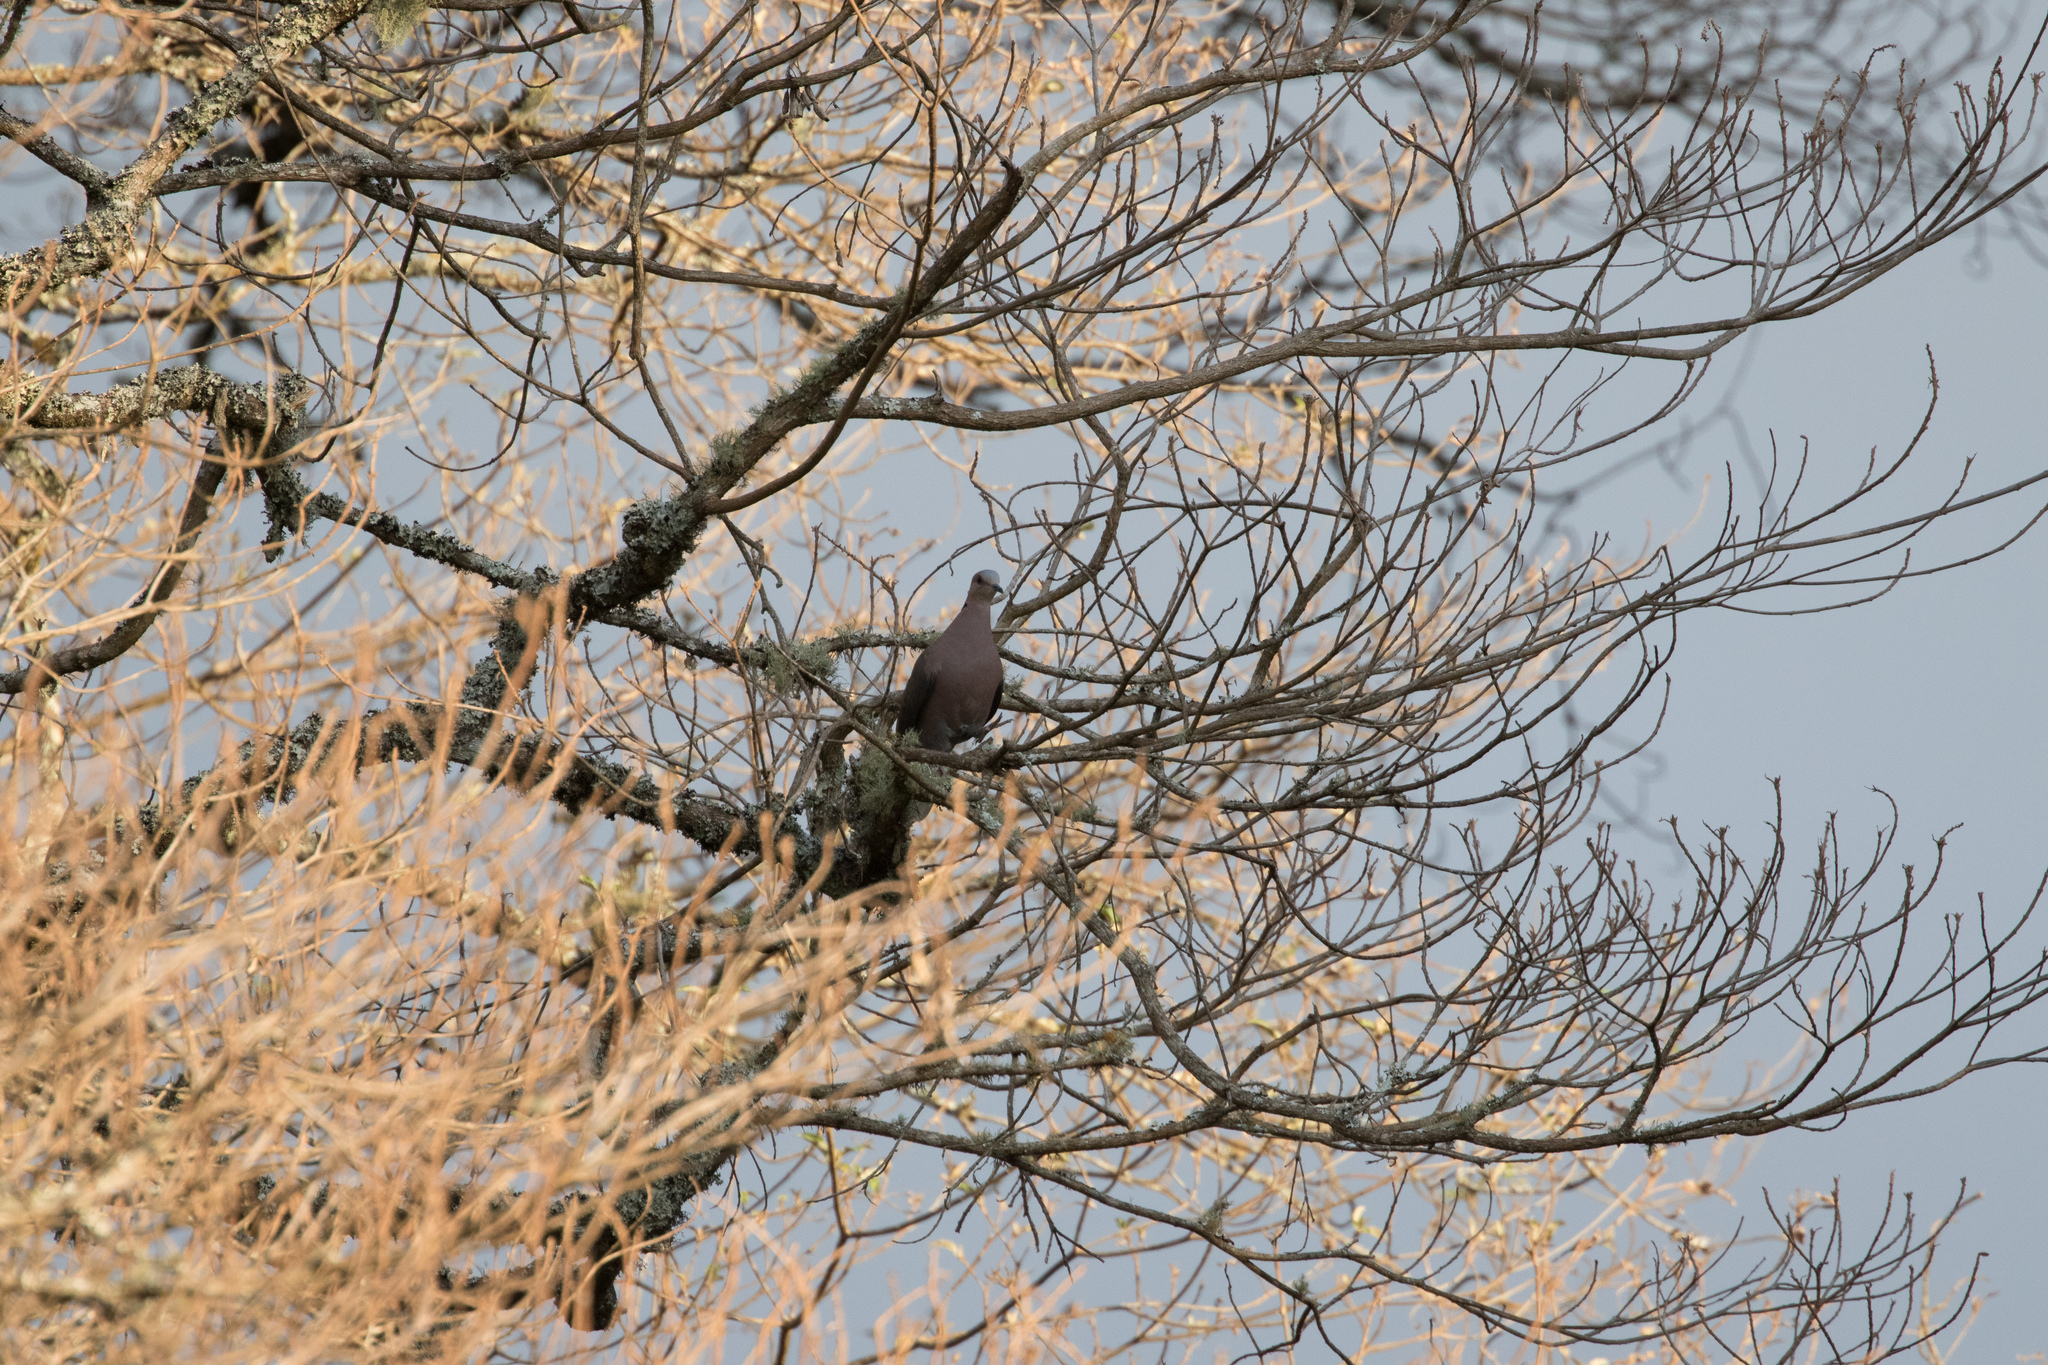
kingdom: Animalia
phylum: Chordata
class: Aves
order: Columbiformes
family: Columbidae
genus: Streptopelia
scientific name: Streptopelia semitorquata
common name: Red-eyed dove
